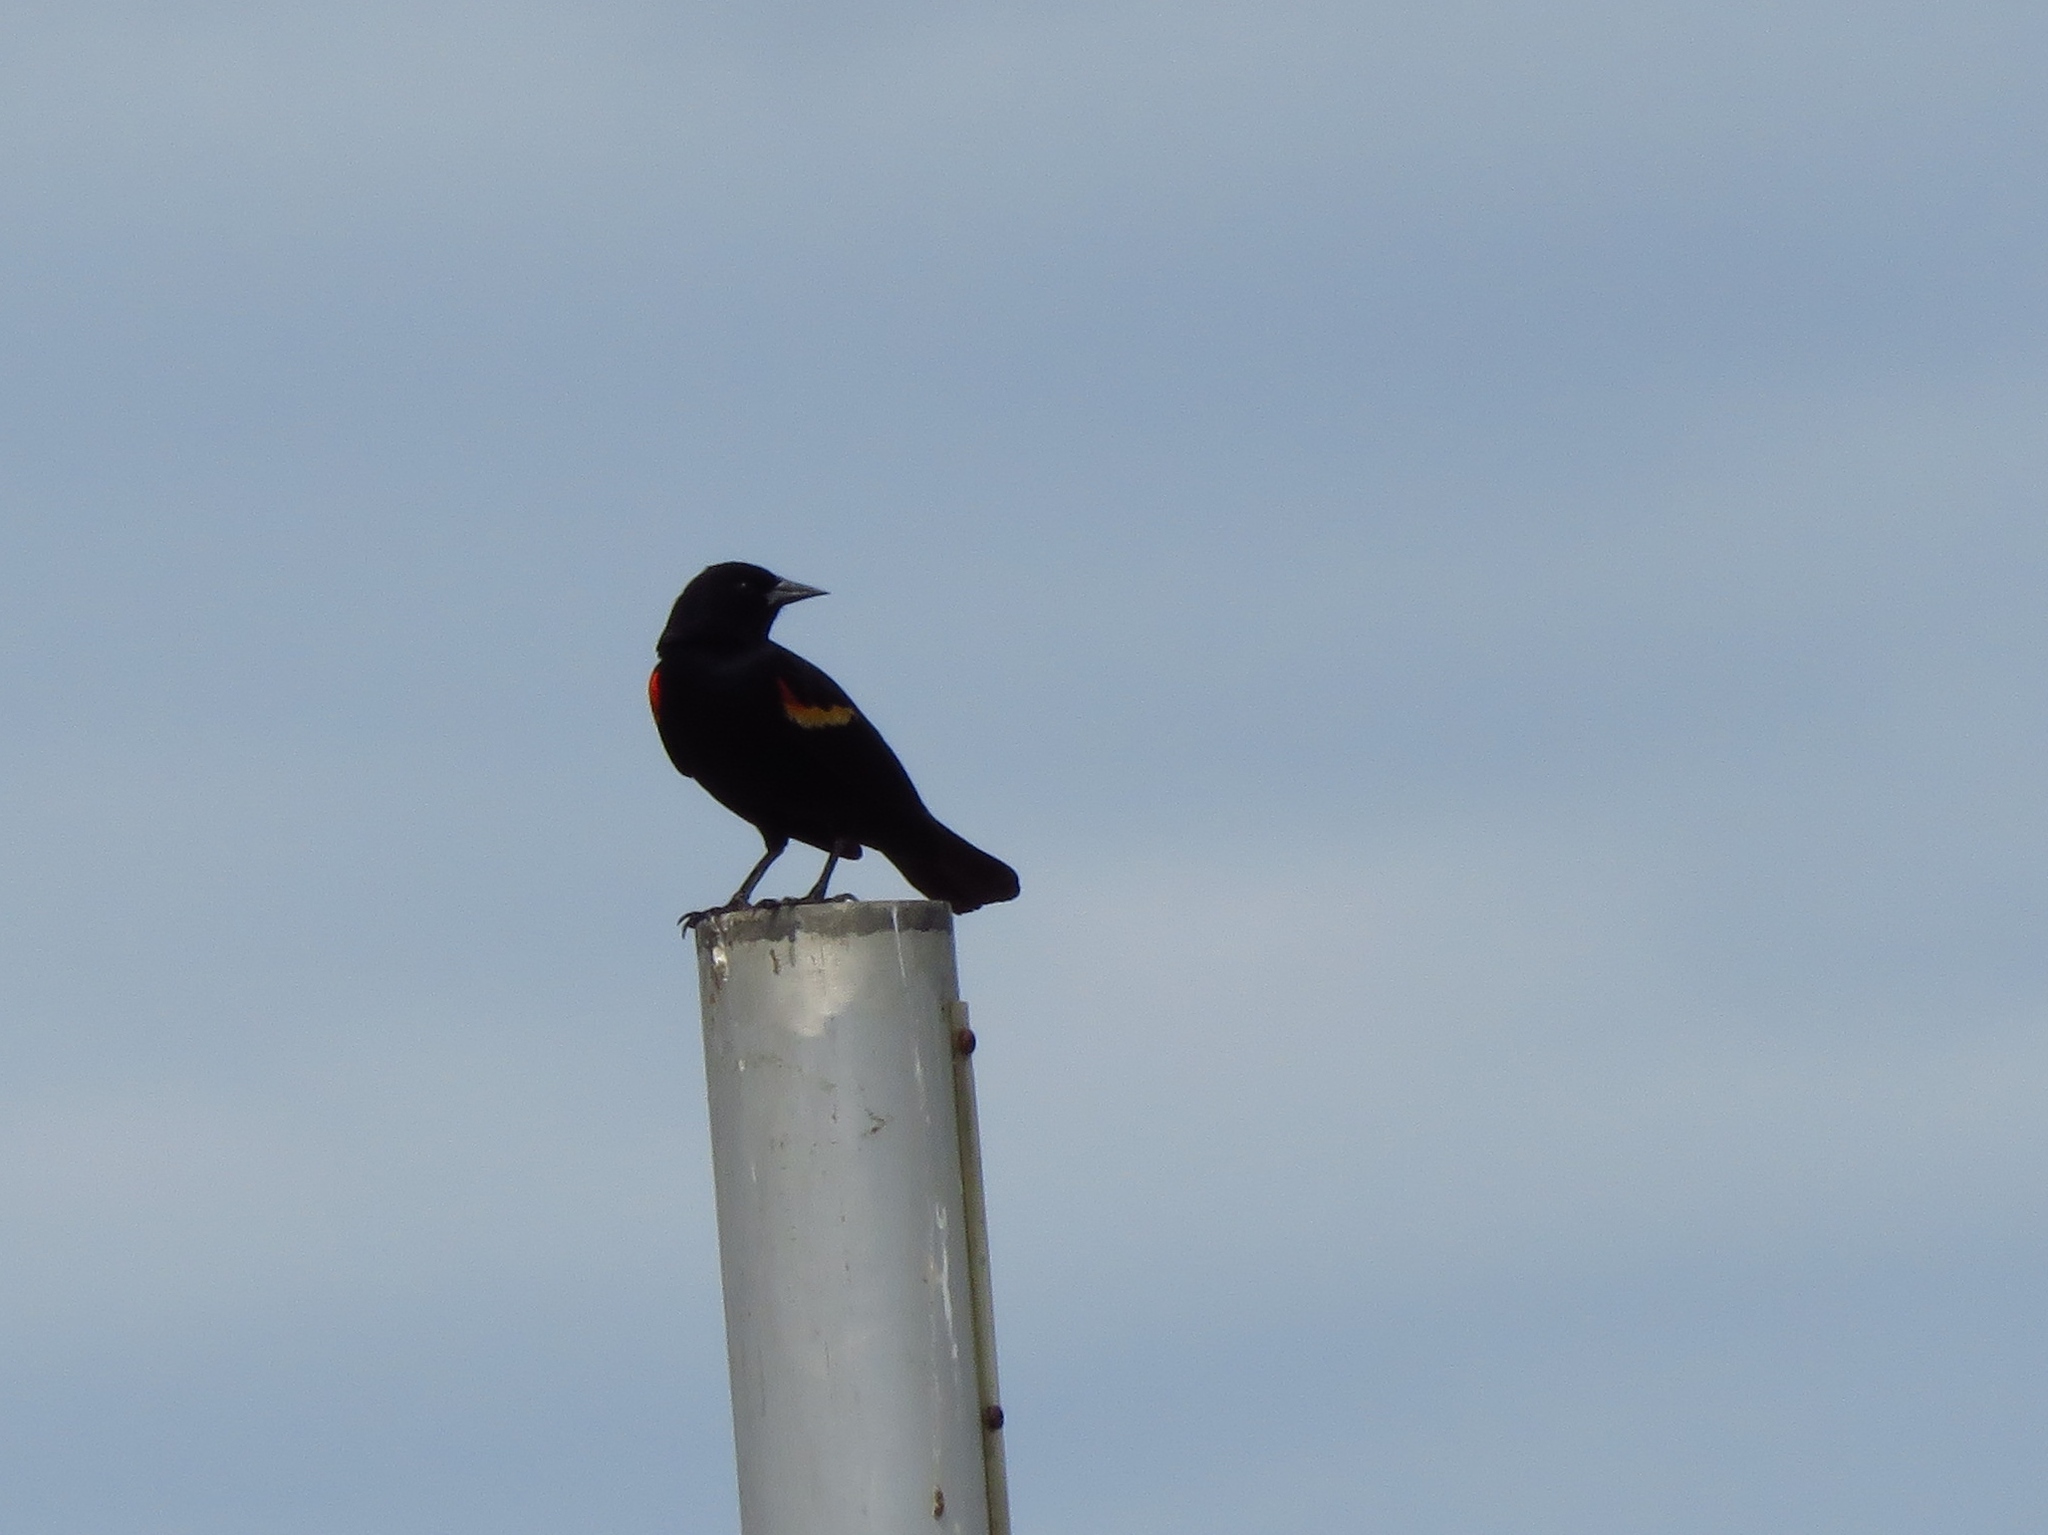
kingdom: Animalia
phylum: Chordata
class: Aves
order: Passeriformes
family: Icteridae
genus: Agelaius
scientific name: Agelaius phoeniceus
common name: Red-winged blackbird
